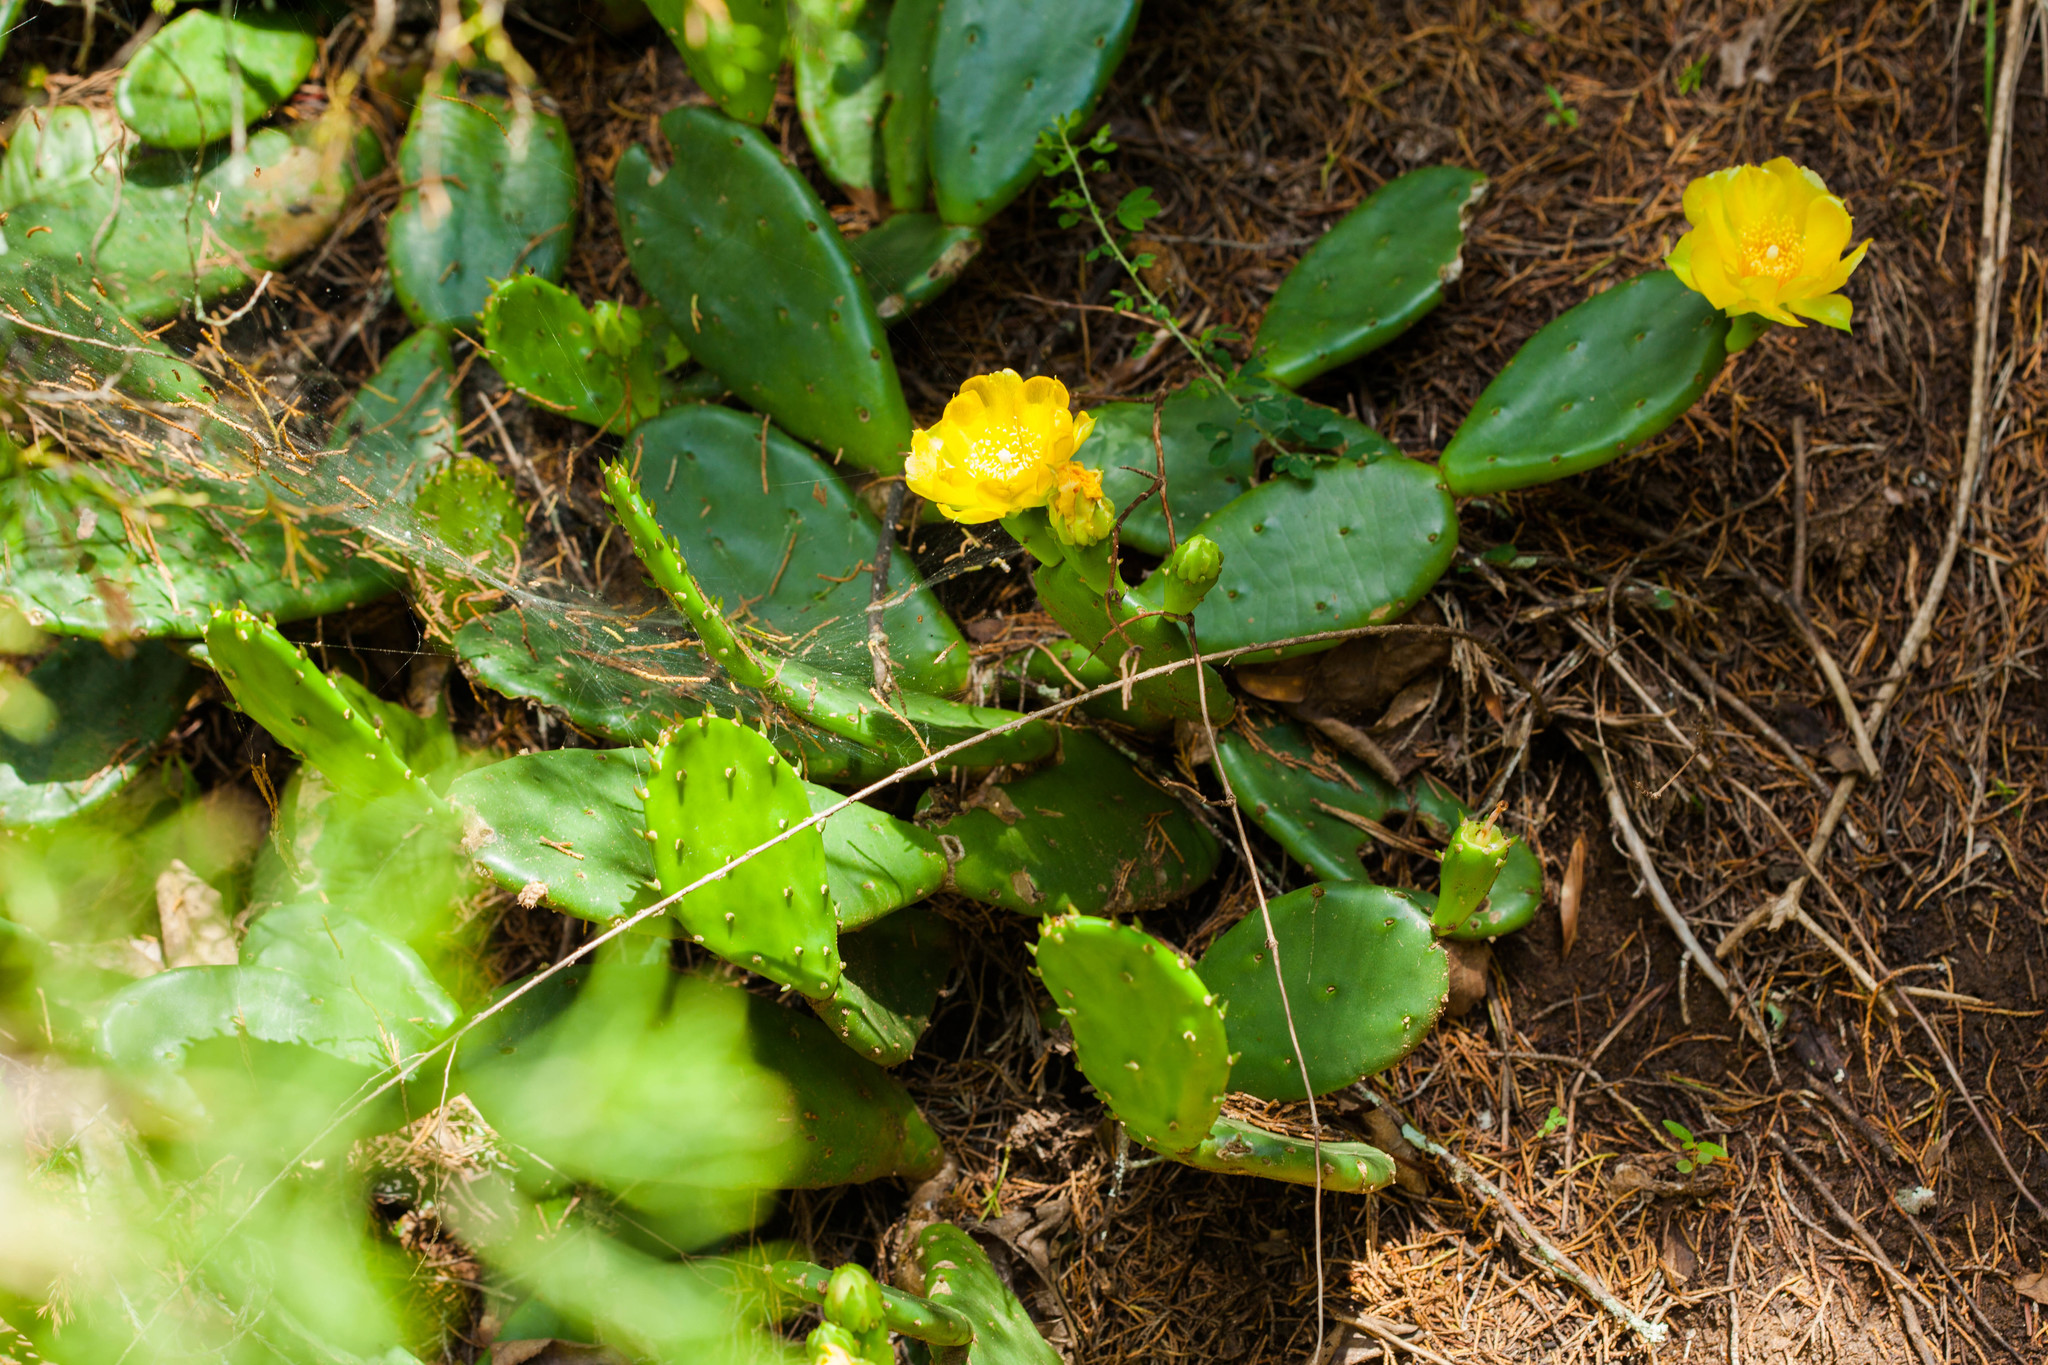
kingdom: Plantae
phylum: Tracheophyta
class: Magnoliopsida
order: Caryophyllales
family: Cactaceae
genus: Opuntia
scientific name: Opuntia humifusa
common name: Eastern prickly-pear
